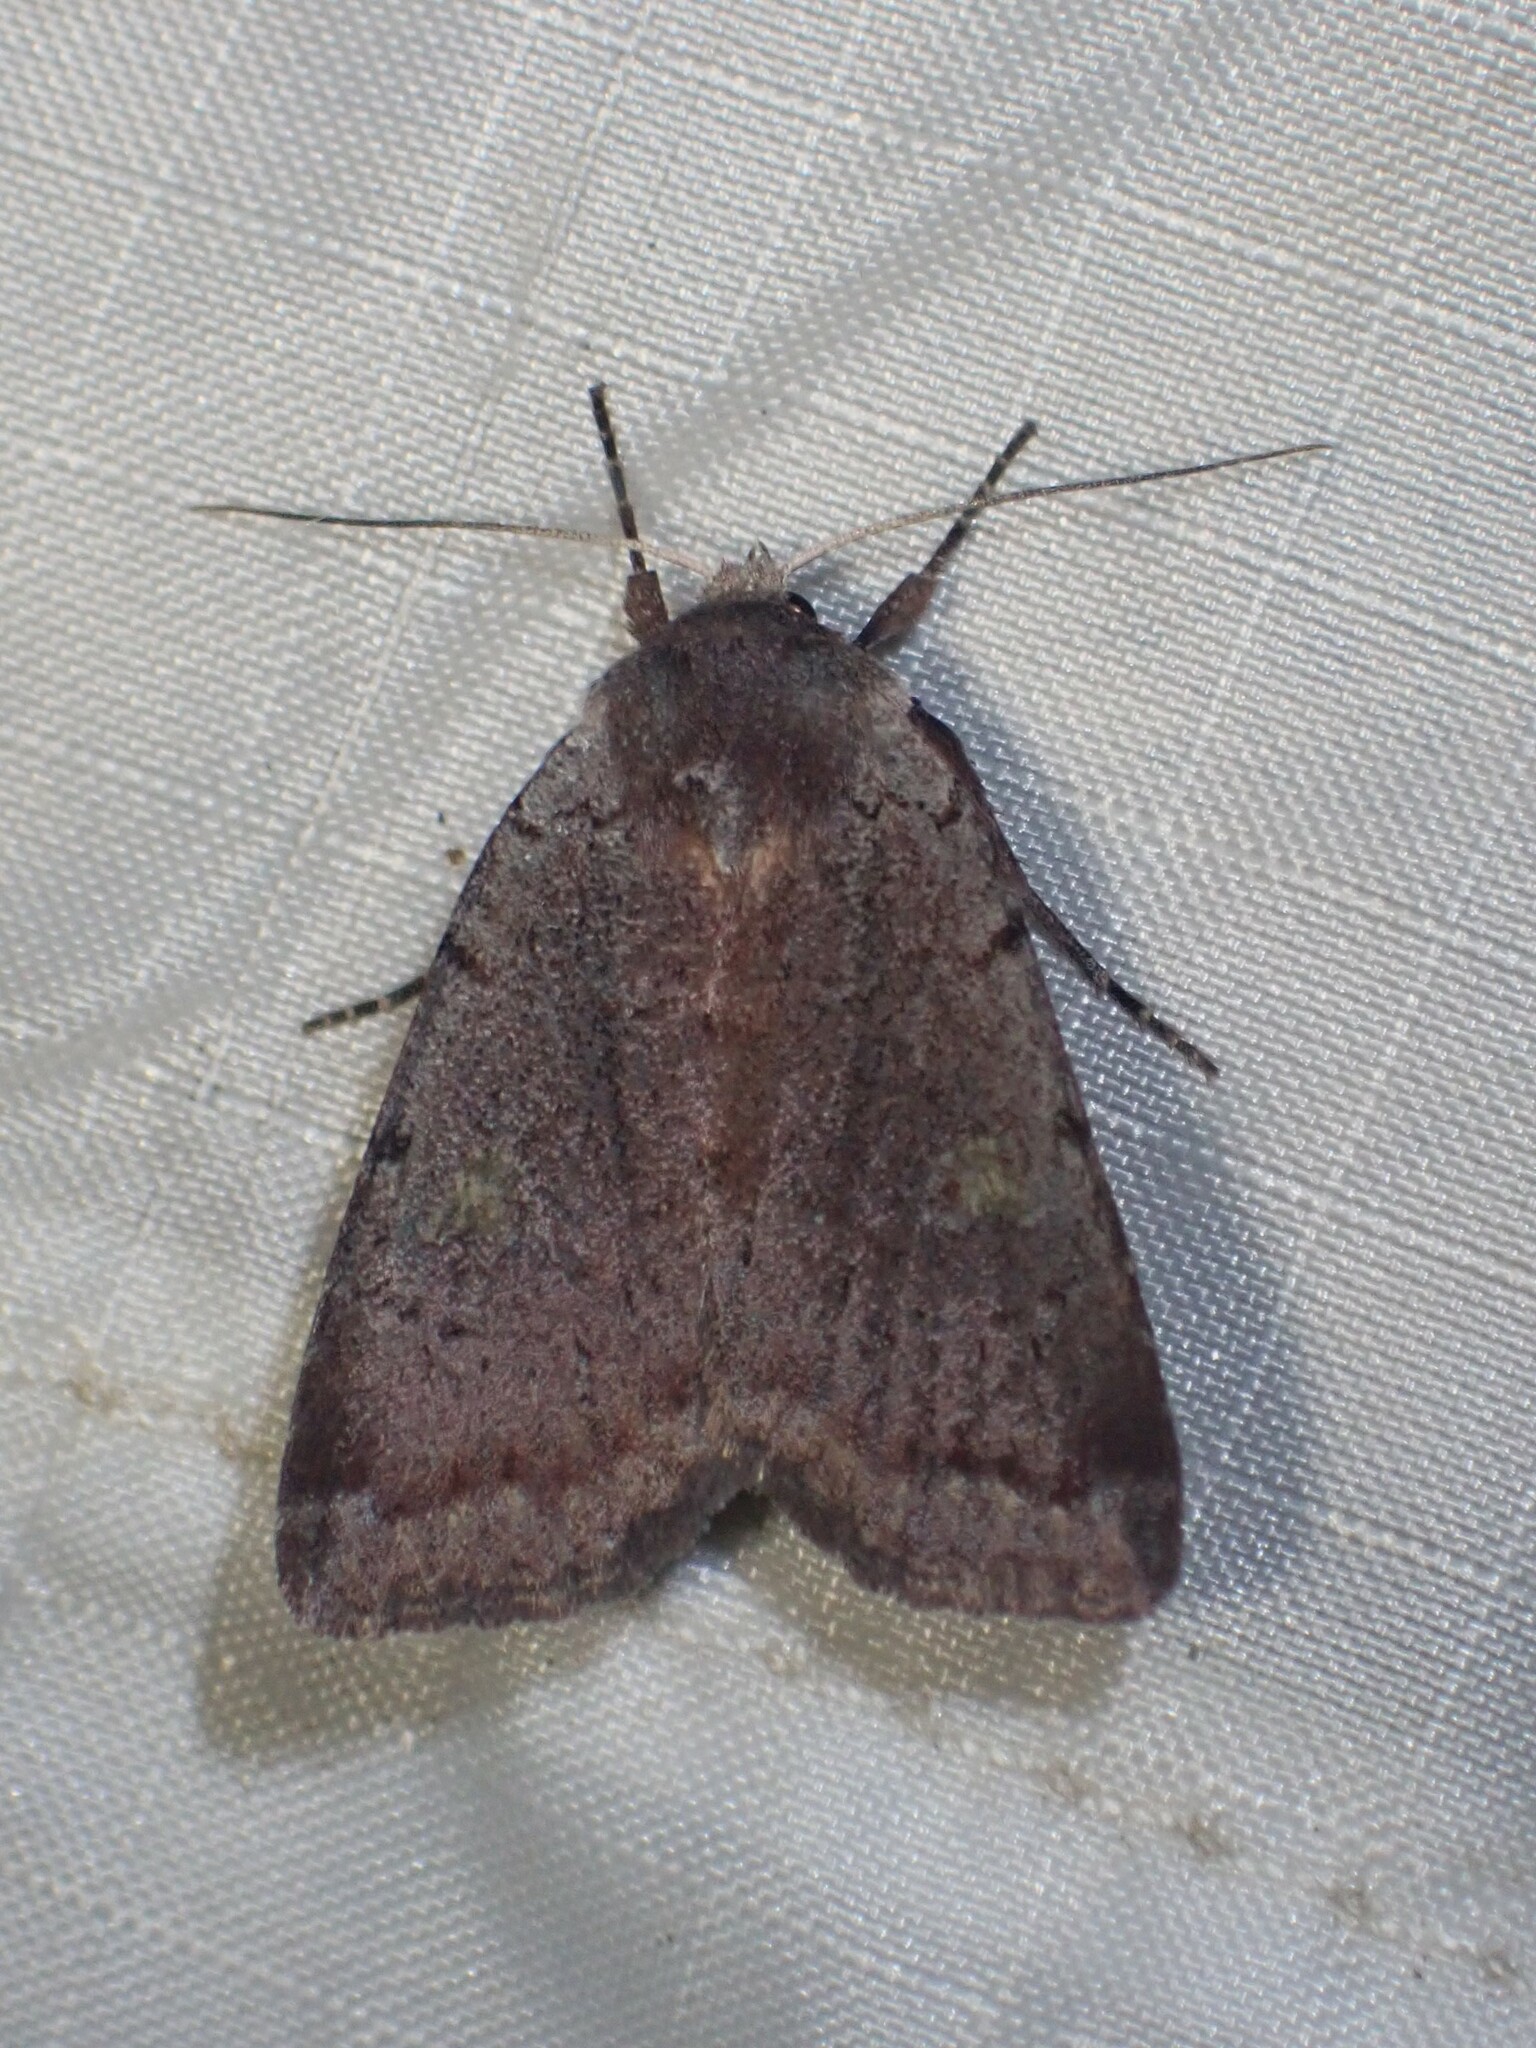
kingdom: Animalia
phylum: Arthropoda
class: Insecta
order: Lepidoptera
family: Noctuidae
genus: Xestia
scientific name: Xestia dilucida
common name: Dull reddish dart
